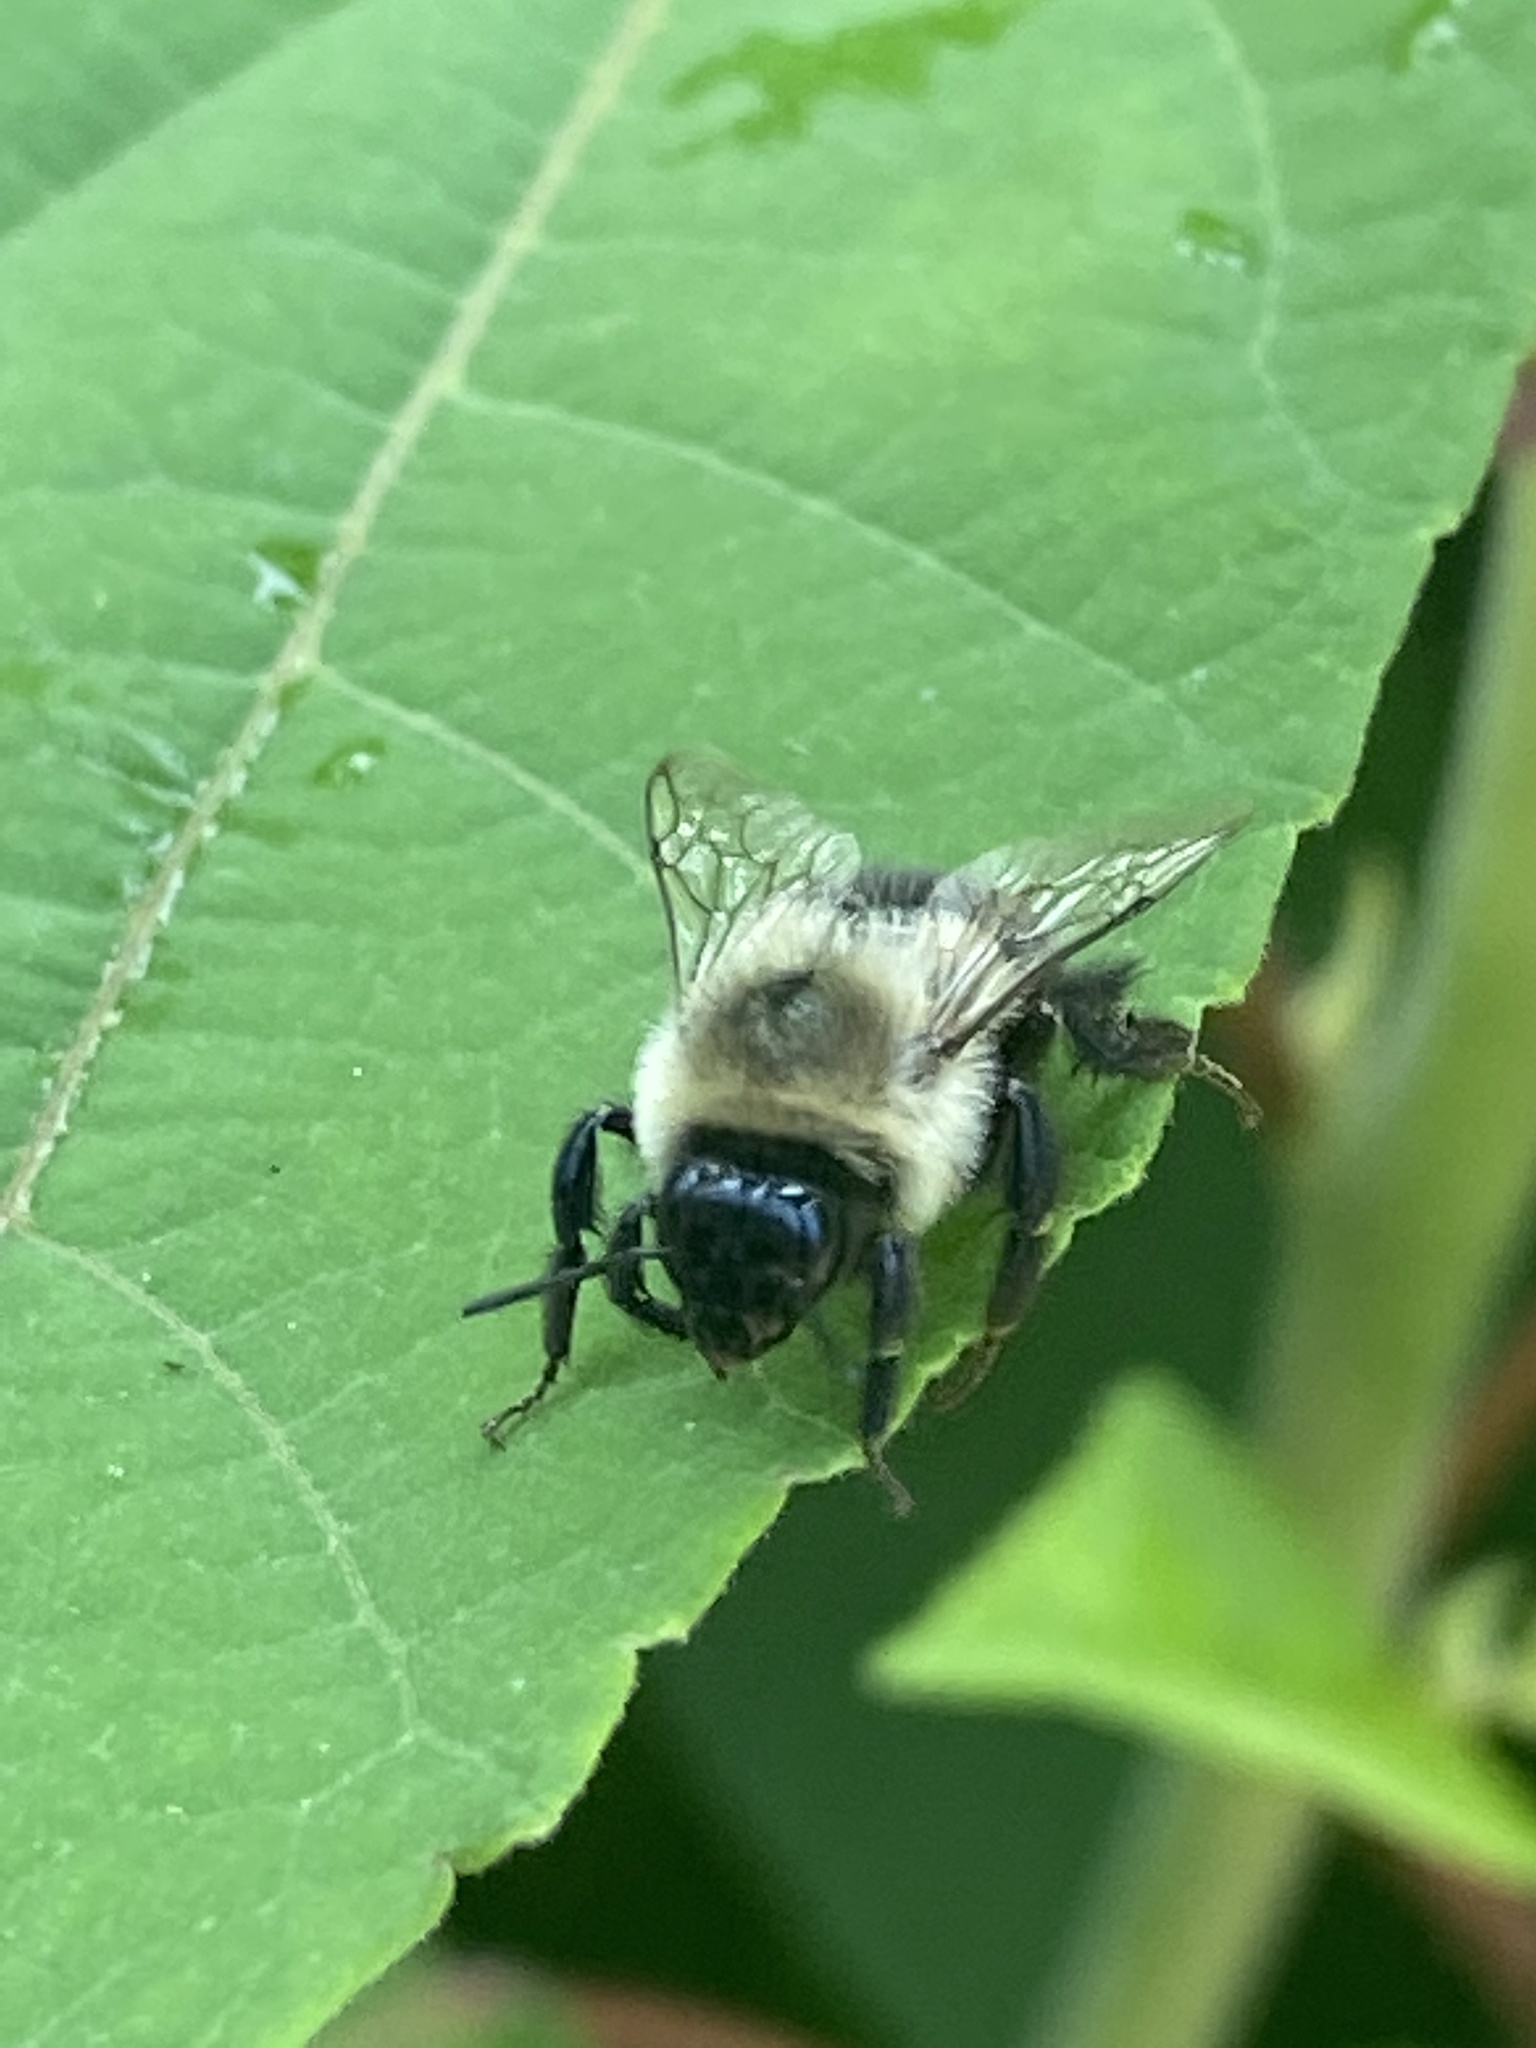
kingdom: Animalia
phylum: Arthropoda
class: Insecta
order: Hymenoptera
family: Apidae
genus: Bombus
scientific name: Bombus impatiens
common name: Common eastern bumble bee
